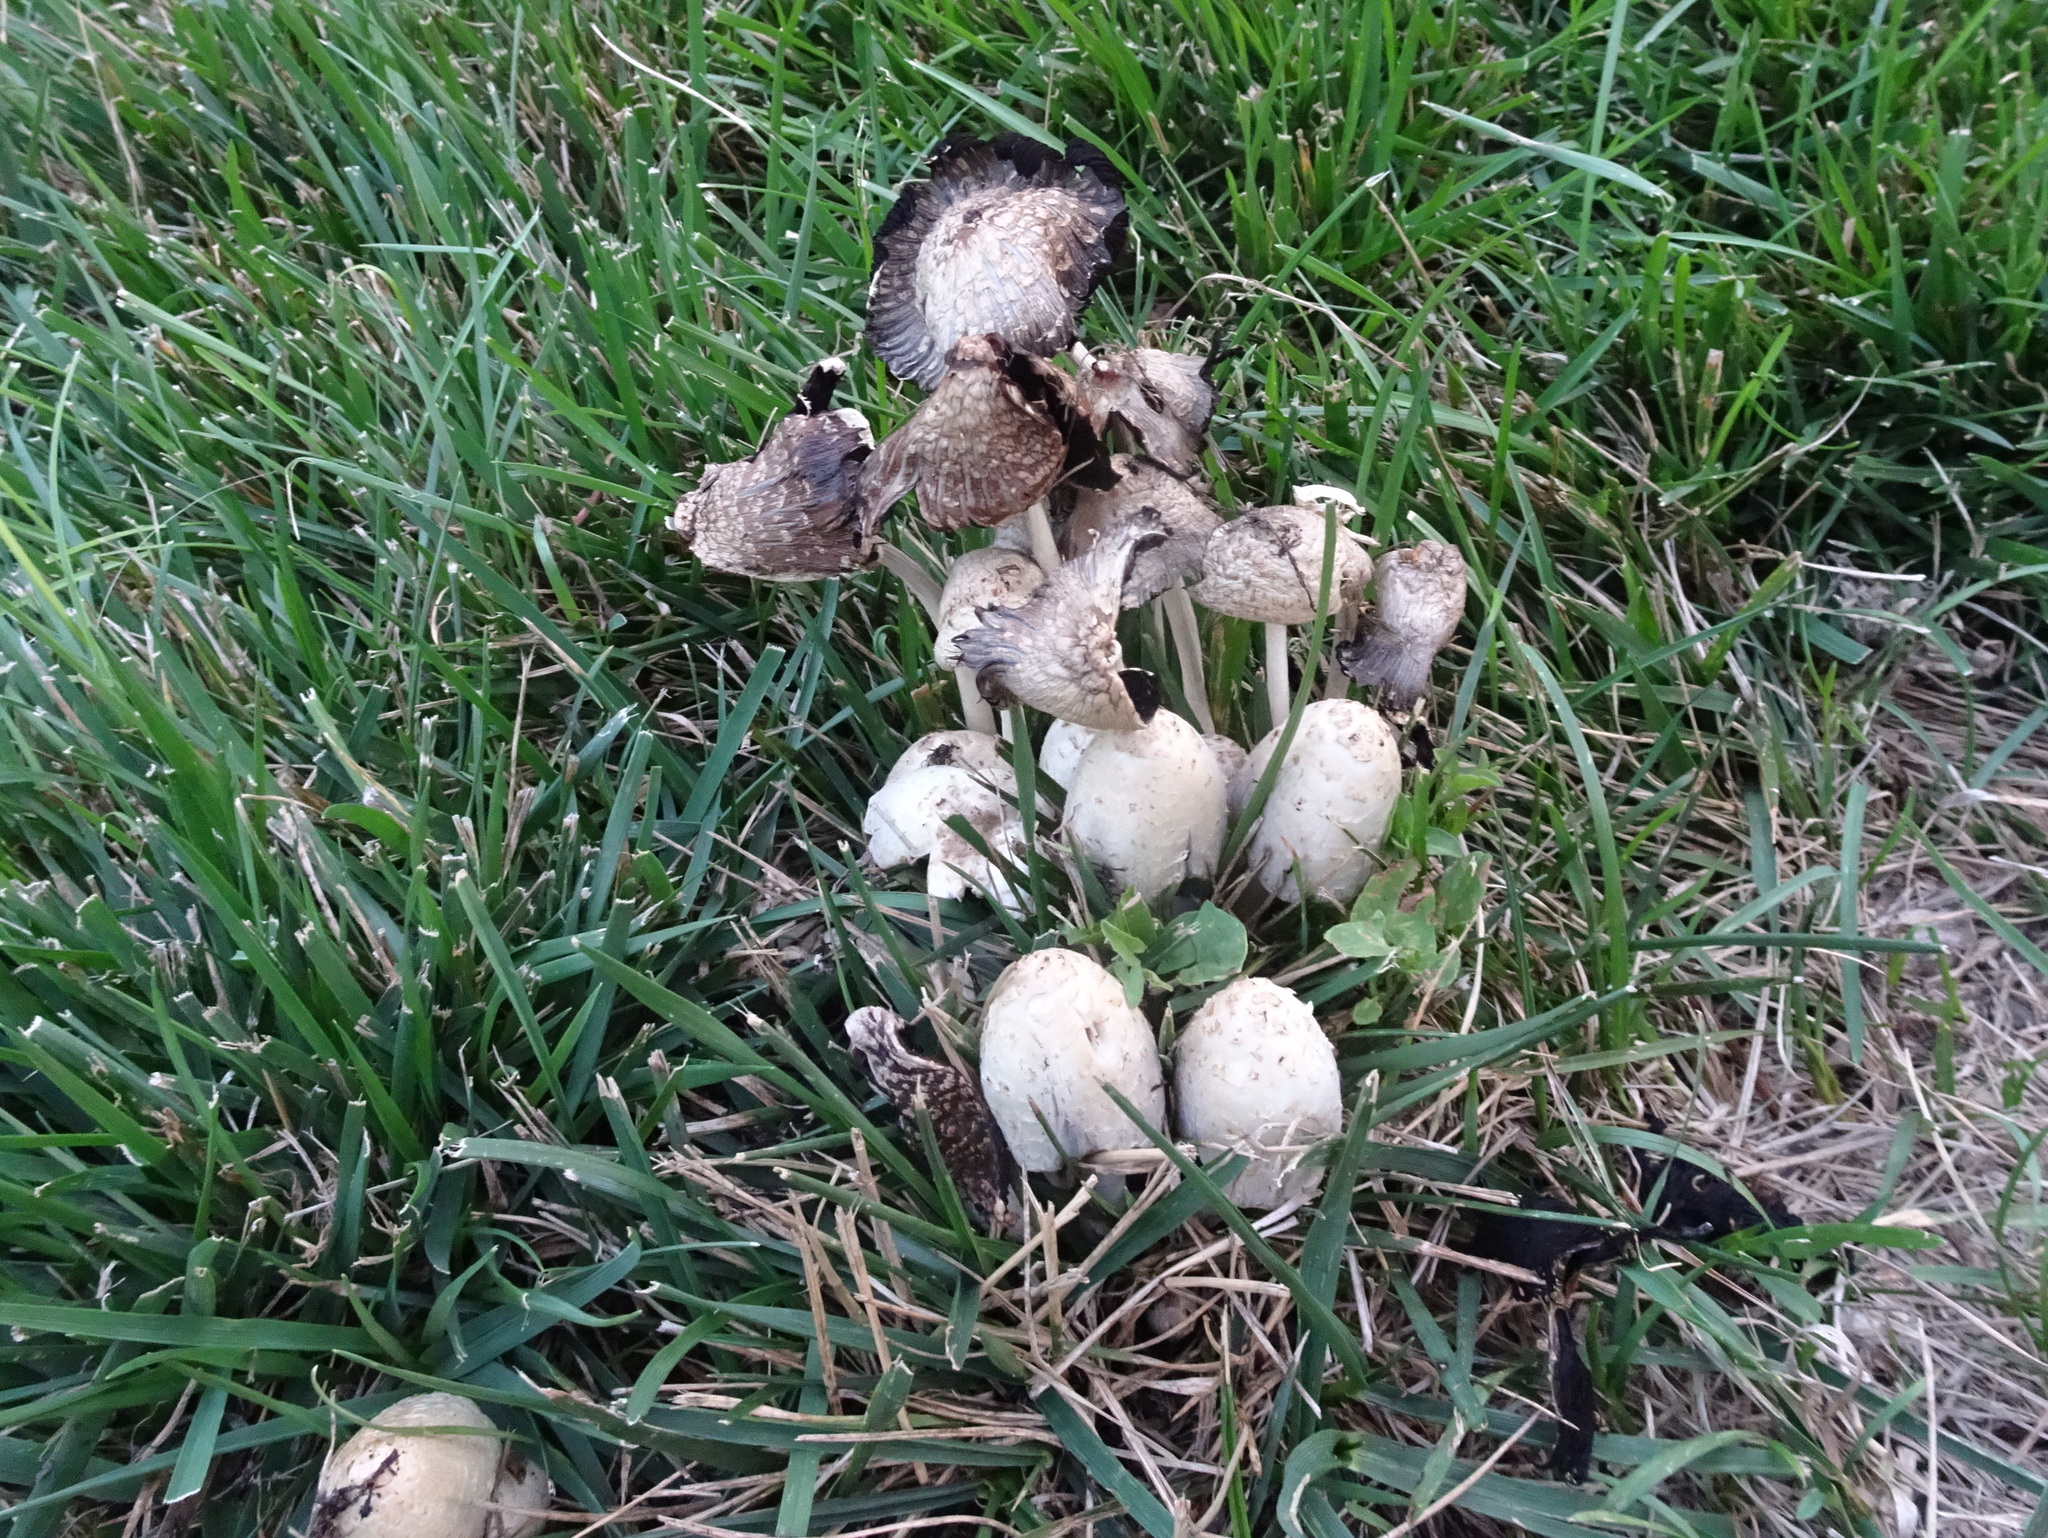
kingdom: Fungi
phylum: Basidiomycota
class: Agaricomycetes
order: Agaricales
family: Psathyrellaceae
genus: Coprinopsis
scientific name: Coprinopsis variegata
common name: Scaly ink cap
